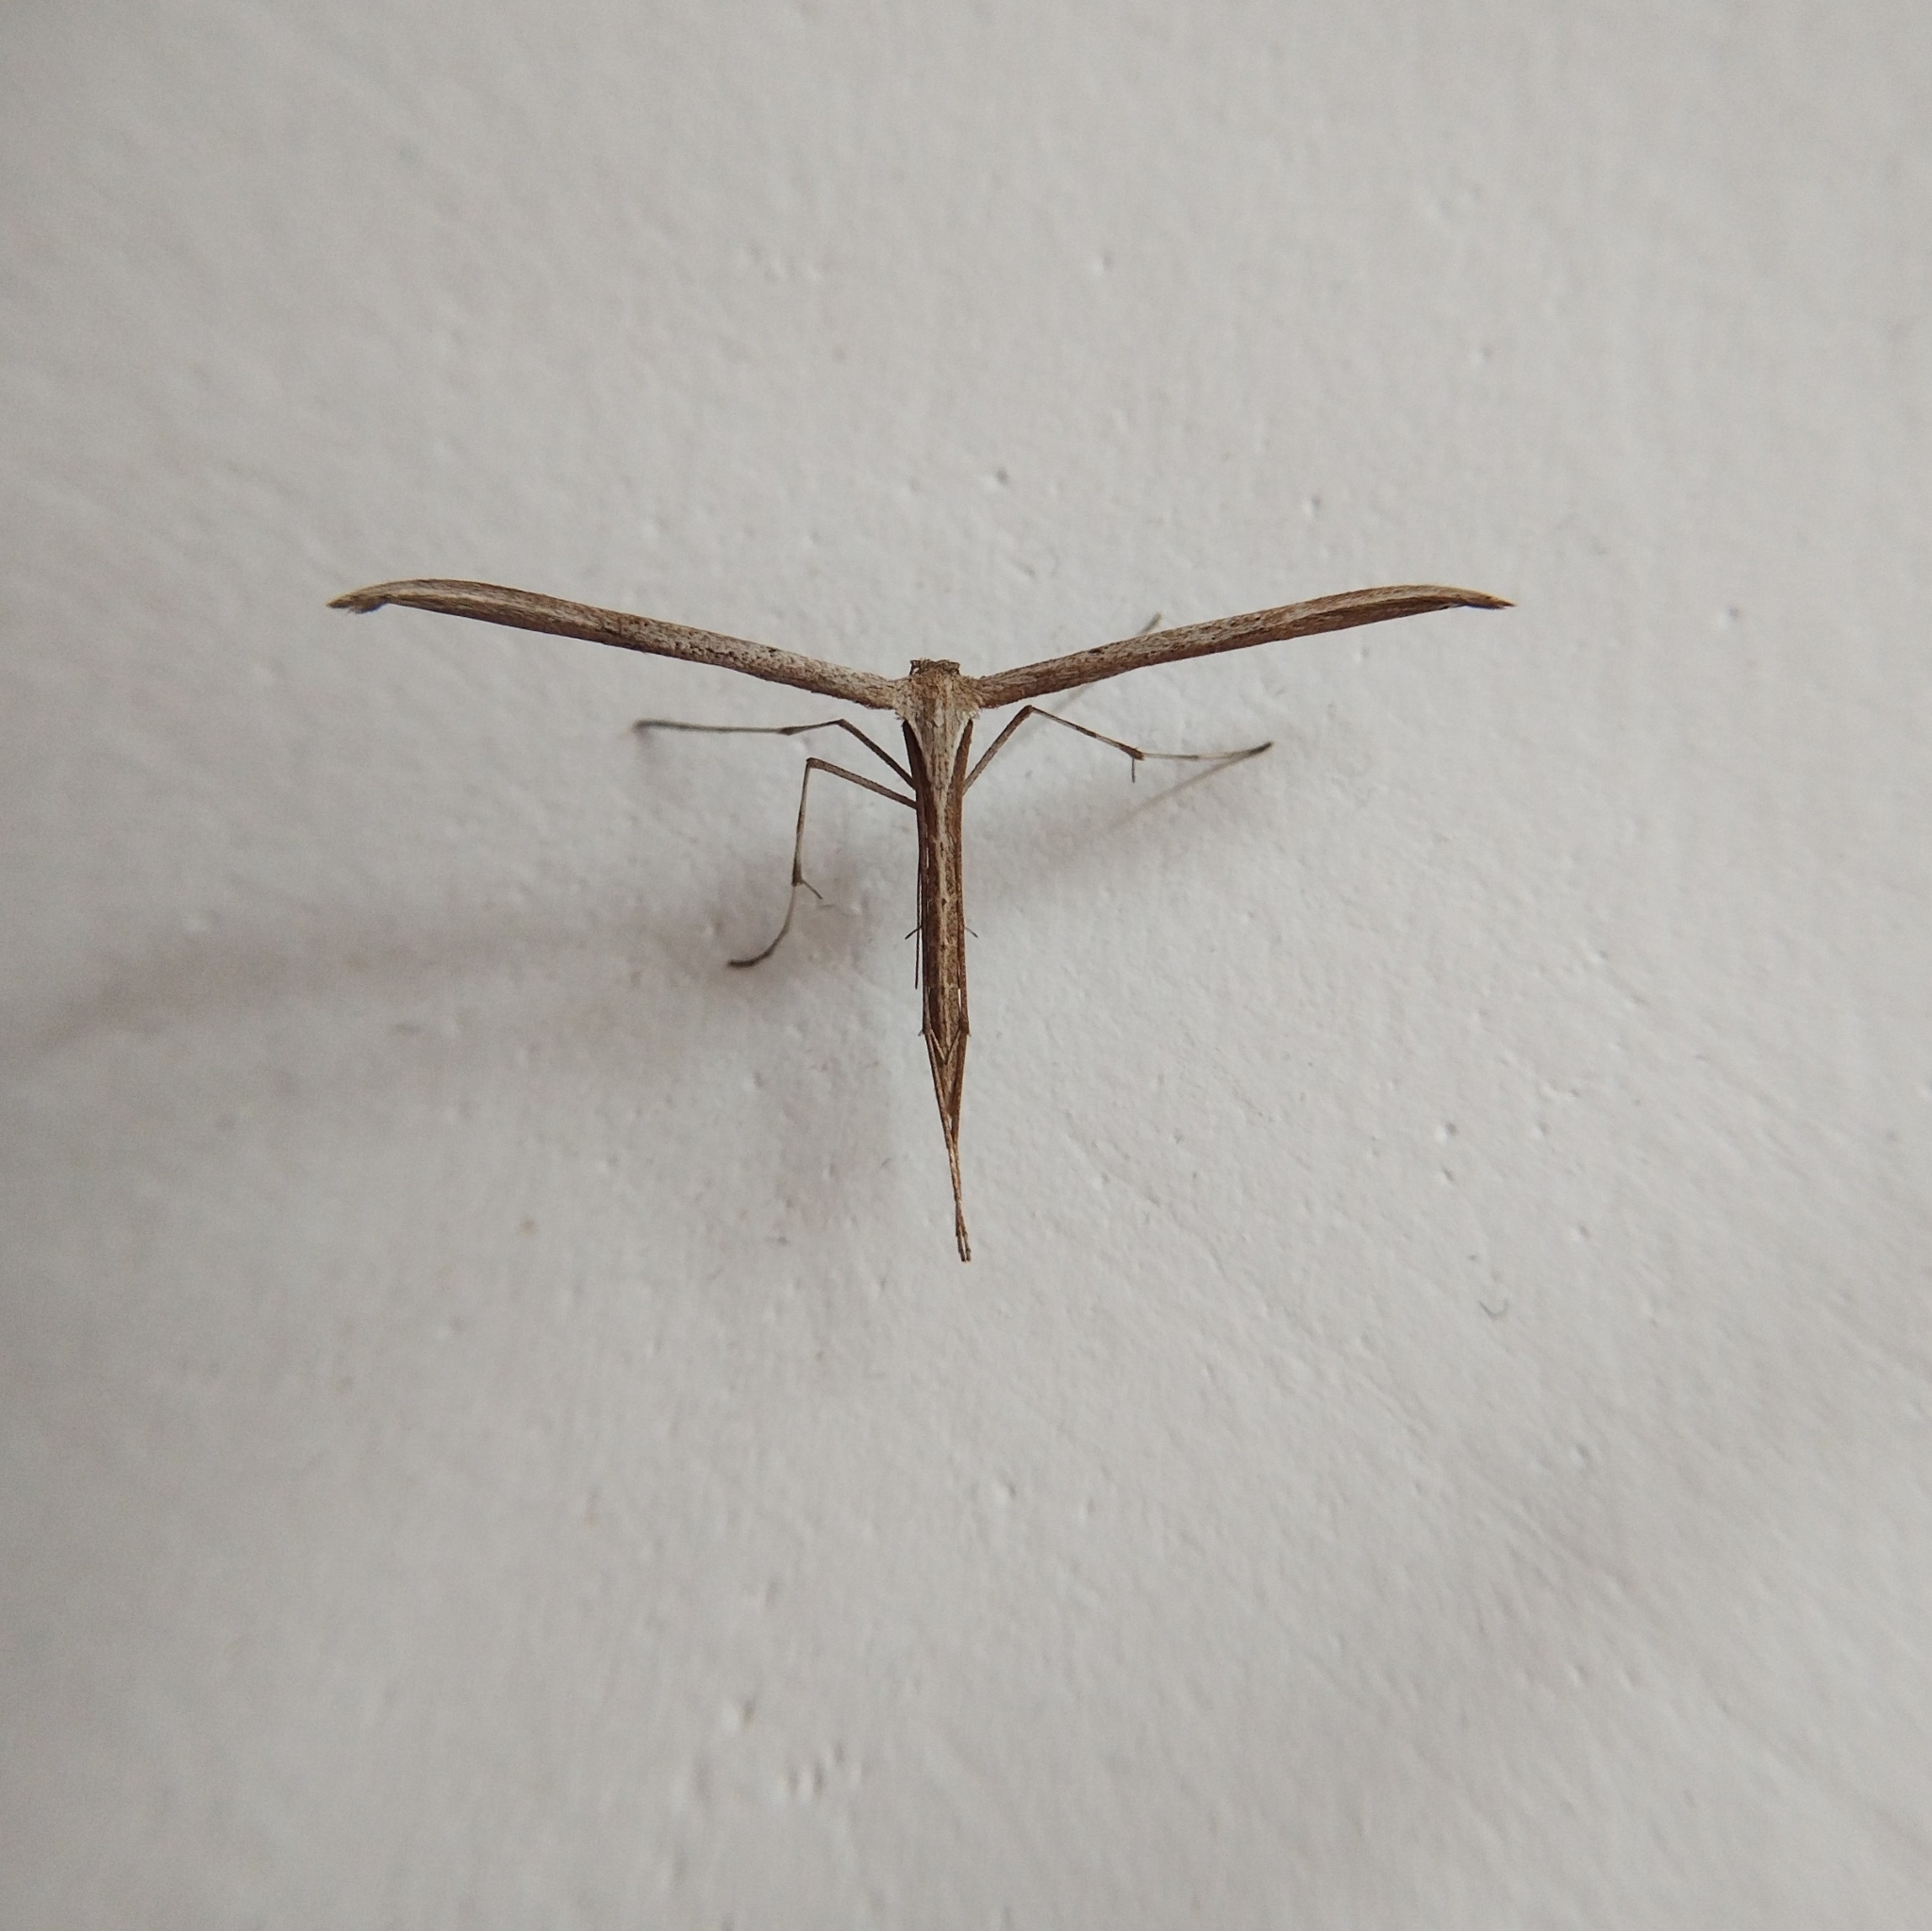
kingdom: Animalia
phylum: Arthropoda
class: Insecta
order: Lepidoptera
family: Pterophoridae
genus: Emmelina
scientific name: Emmelina monodactyla
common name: Common plume
